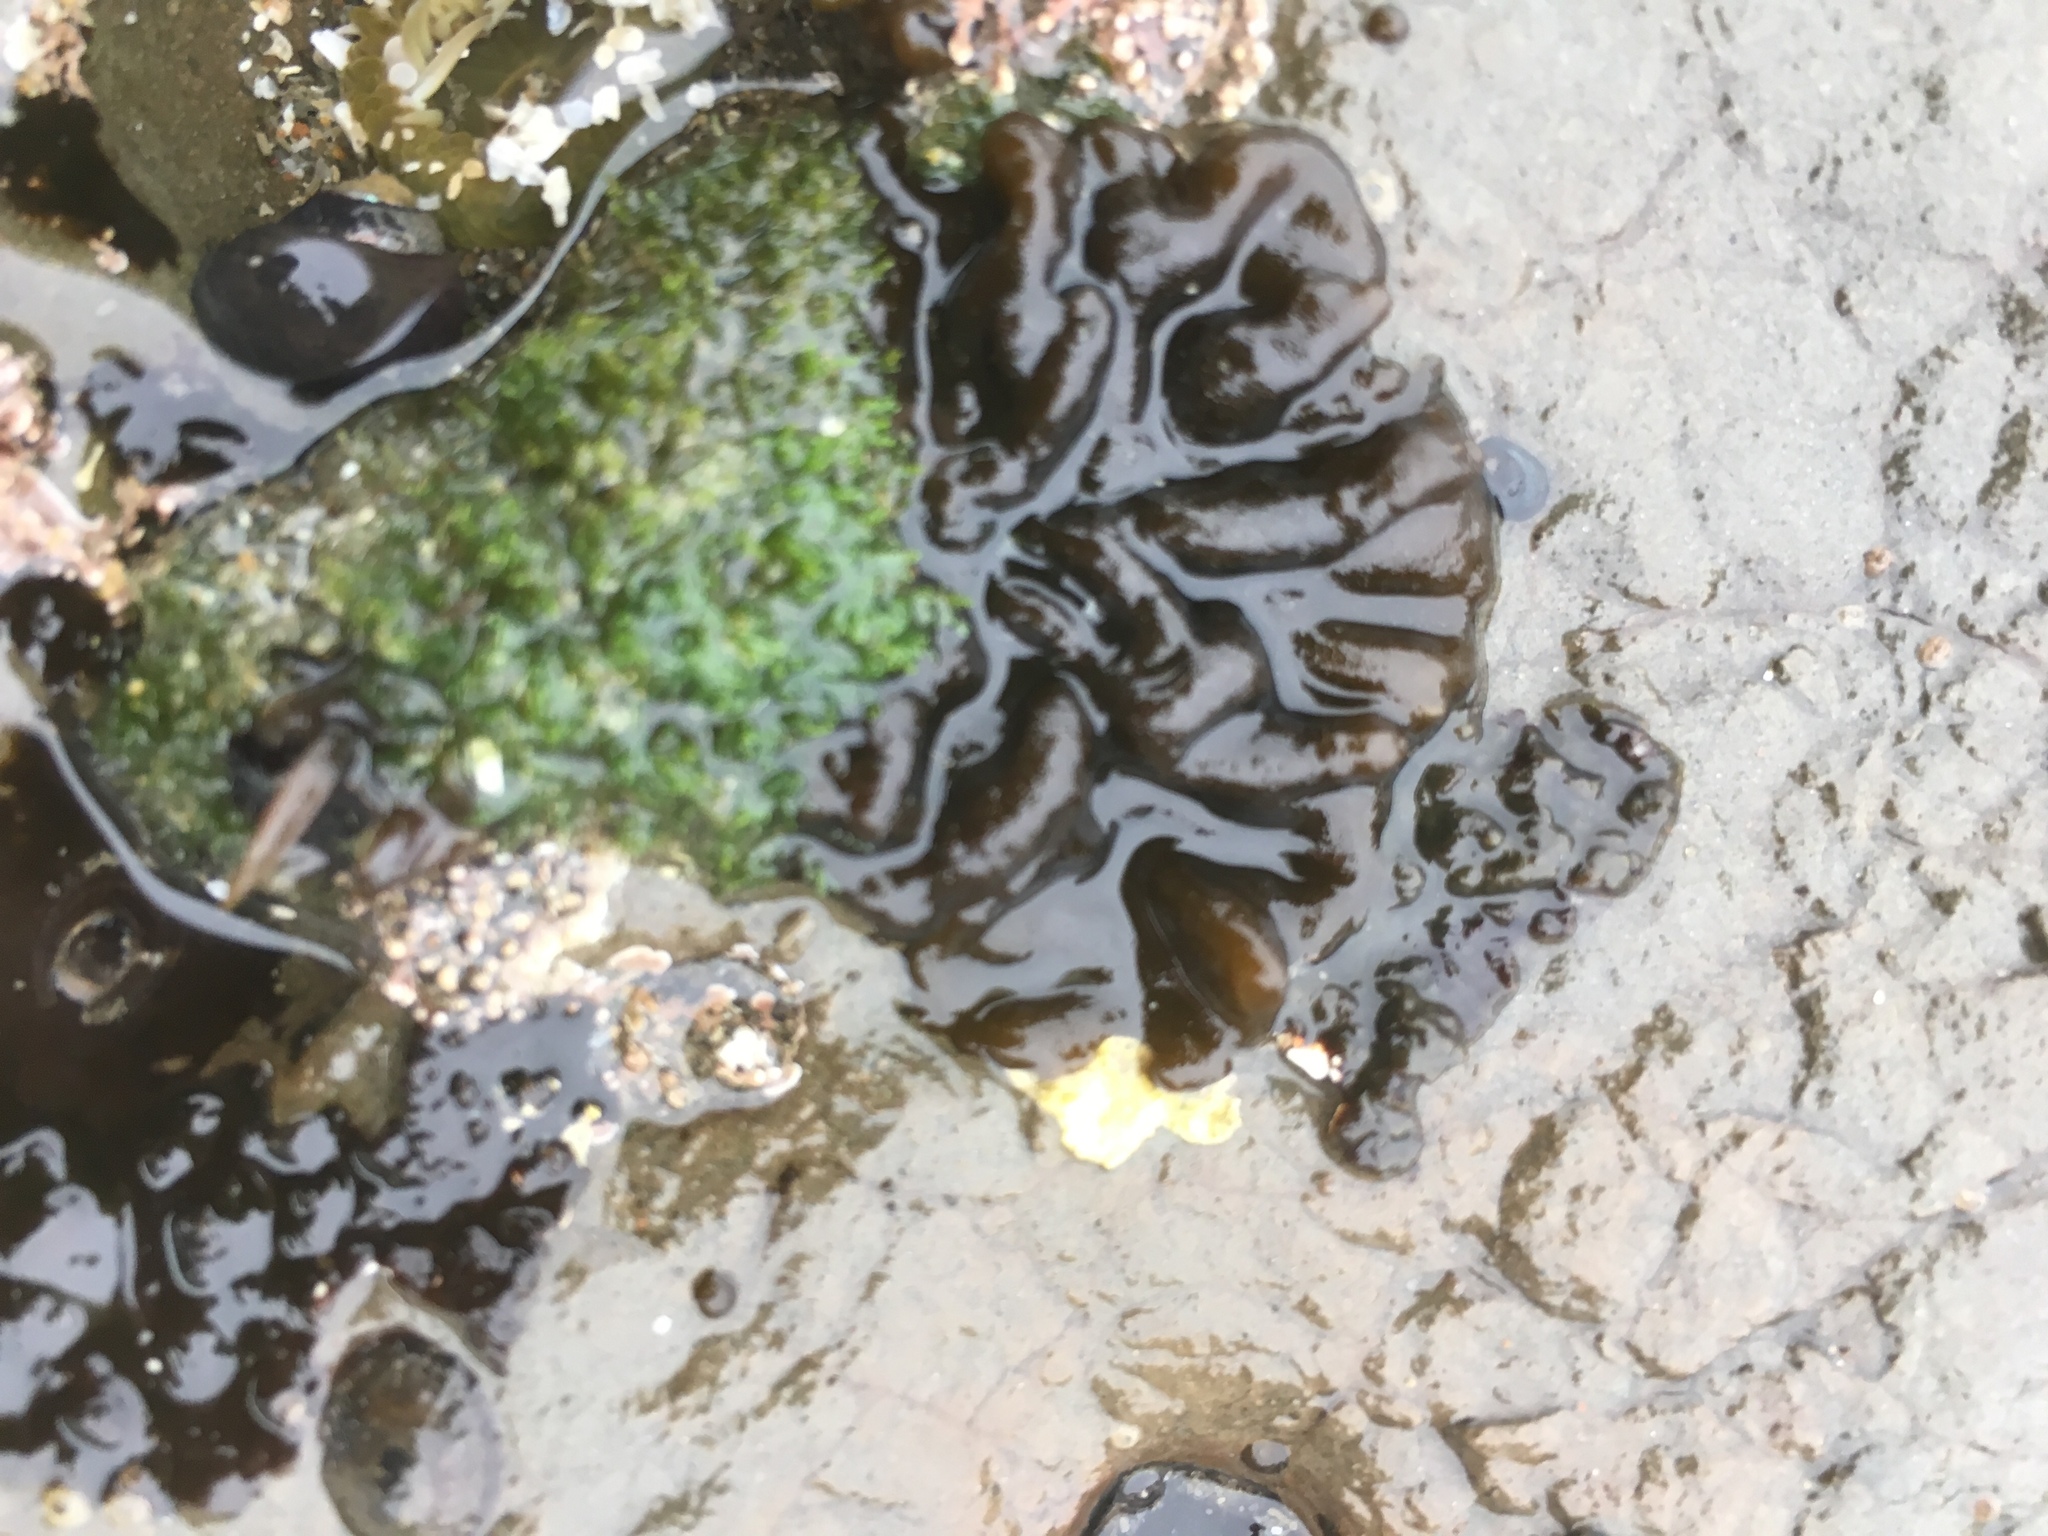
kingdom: Chromista
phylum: Ochrophyta
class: Phaeophyceae
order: Ectocarpales
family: Petrospongiaceae
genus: Petrospongium
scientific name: Petrospongium rugosum
